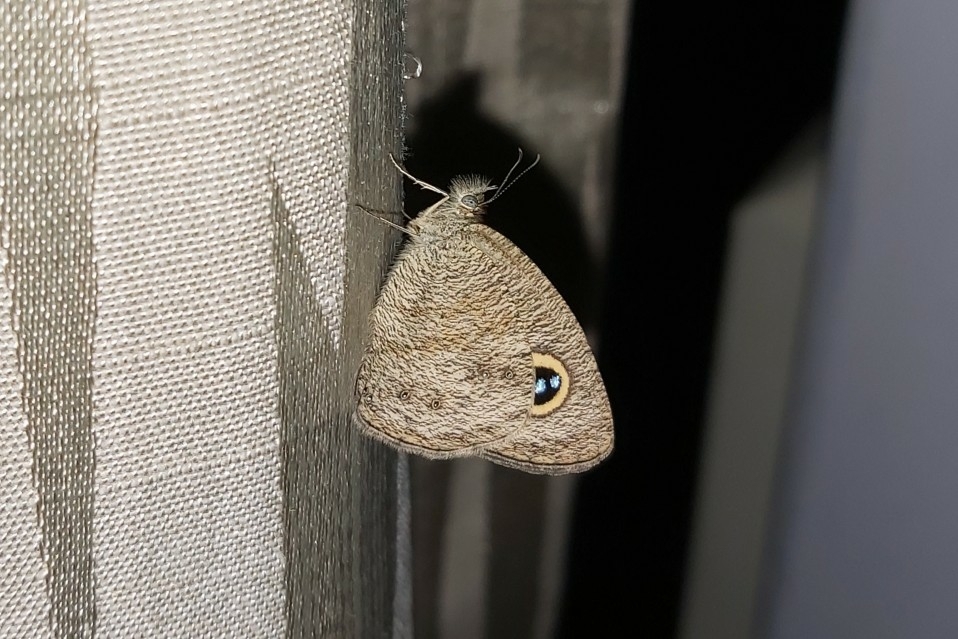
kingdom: Animalia
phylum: Arthropoda
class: Insecta
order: Lepidoptera
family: Nymphalidae
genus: Ypthima
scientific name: Ypthima baldus
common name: Common five-ring
